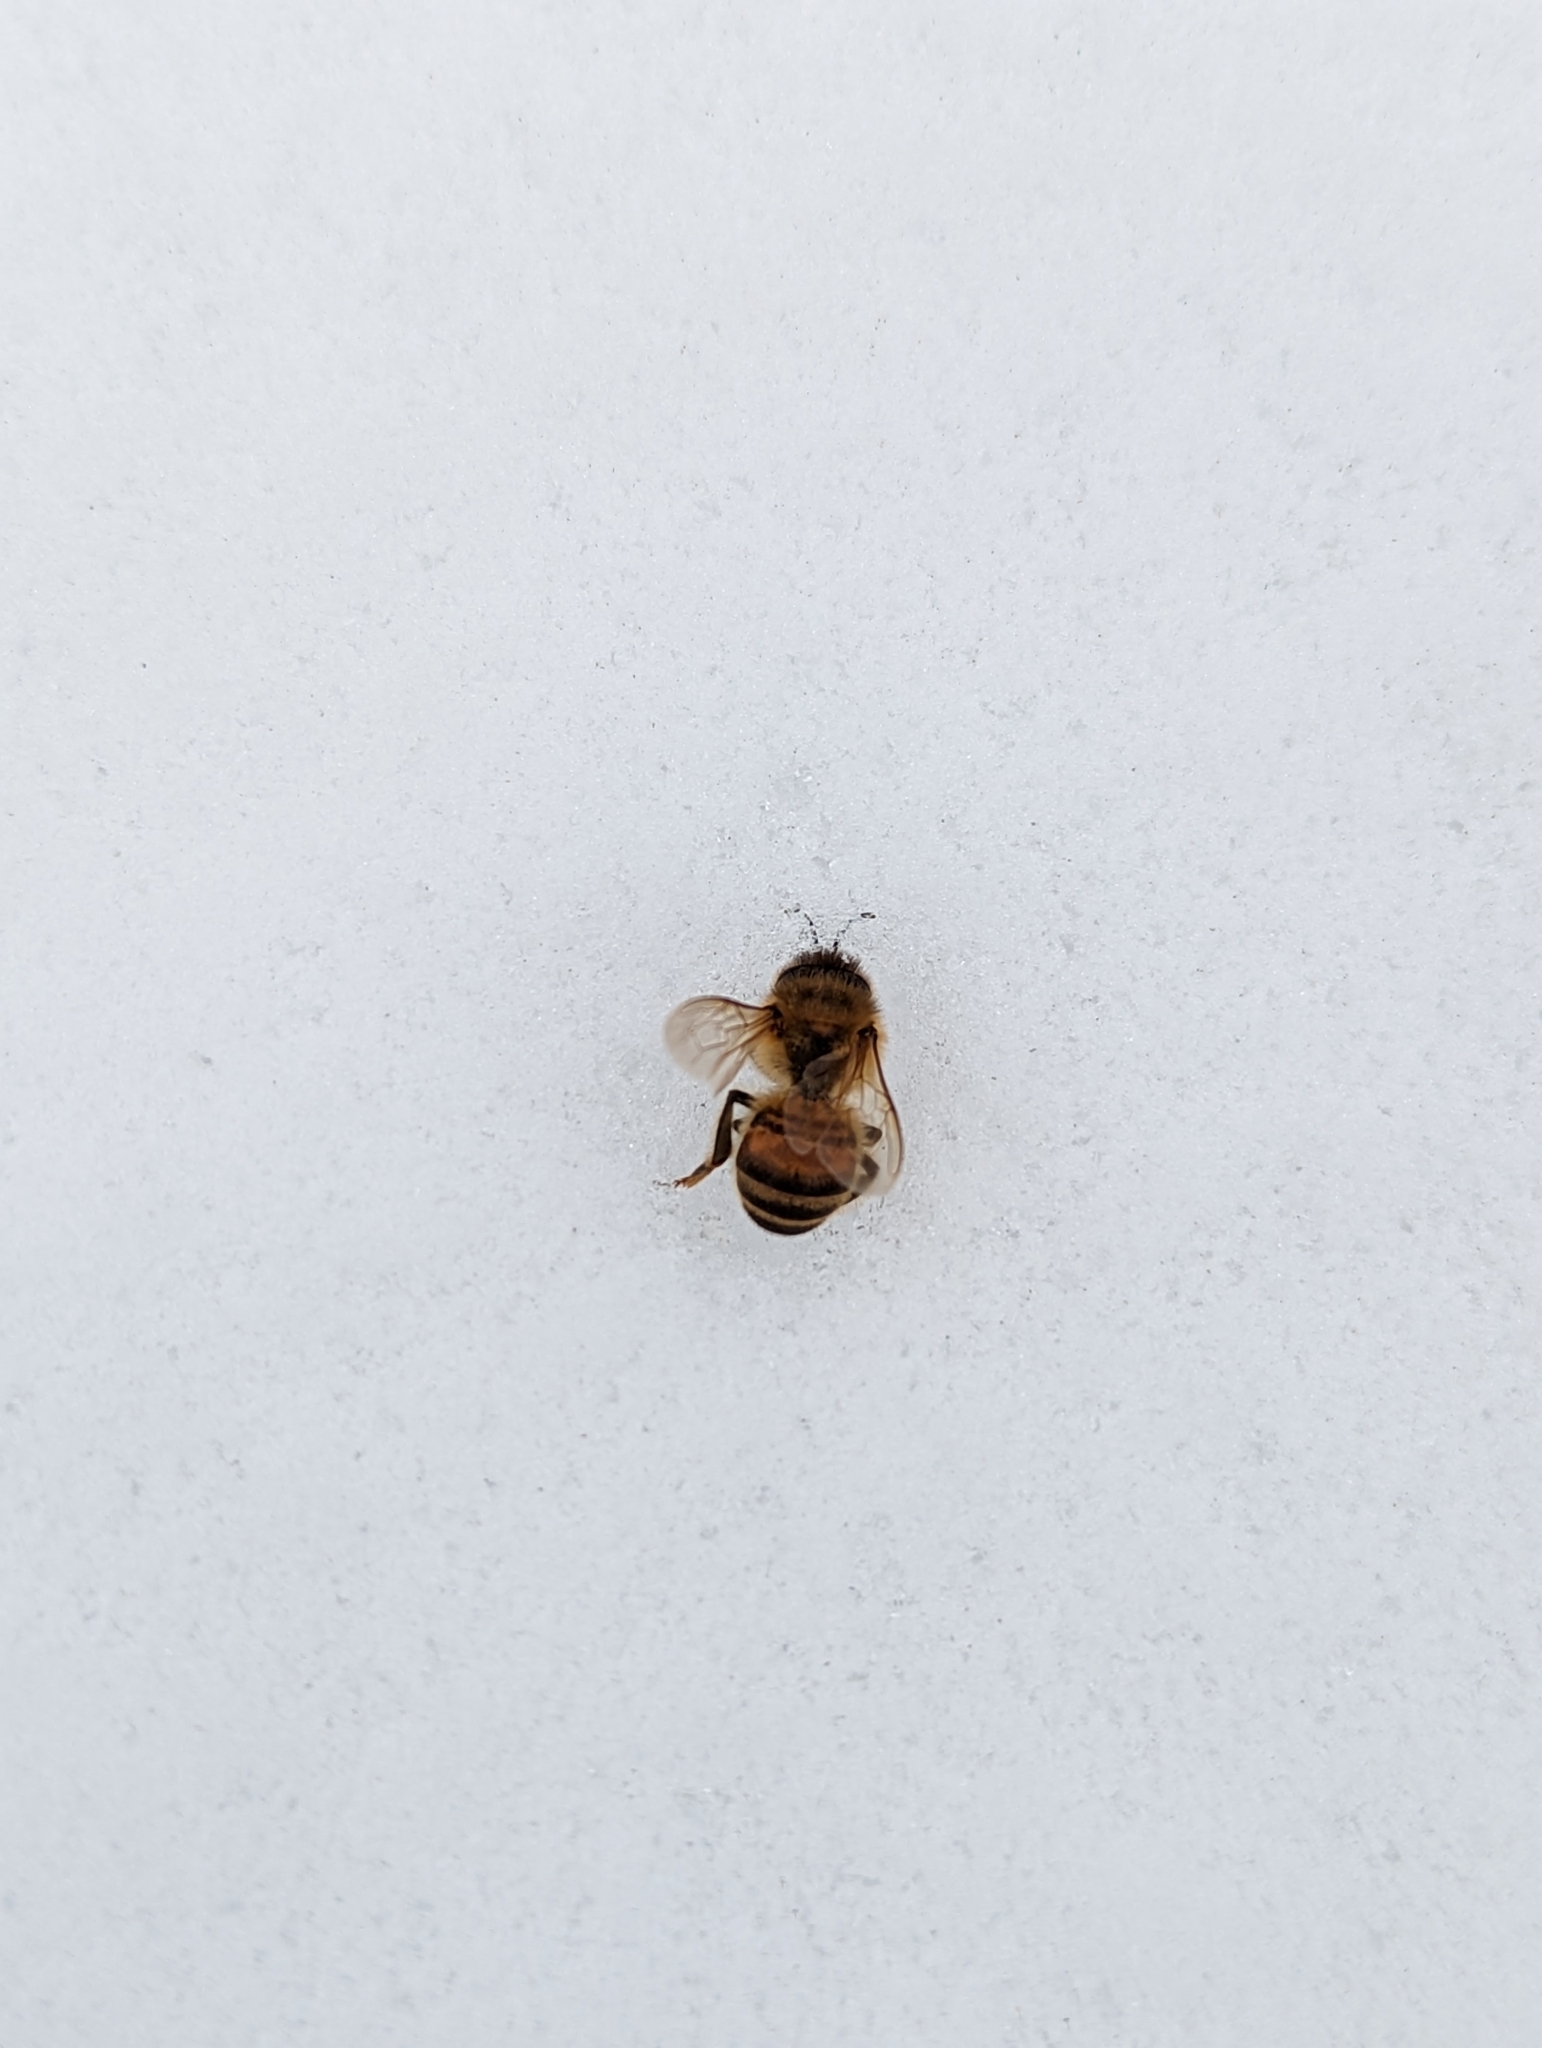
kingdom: Animalia
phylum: Arthropoda
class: Insecta
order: Hymenoptera
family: Apidae
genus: Apis
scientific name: Apis mellifera
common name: Honey bee
